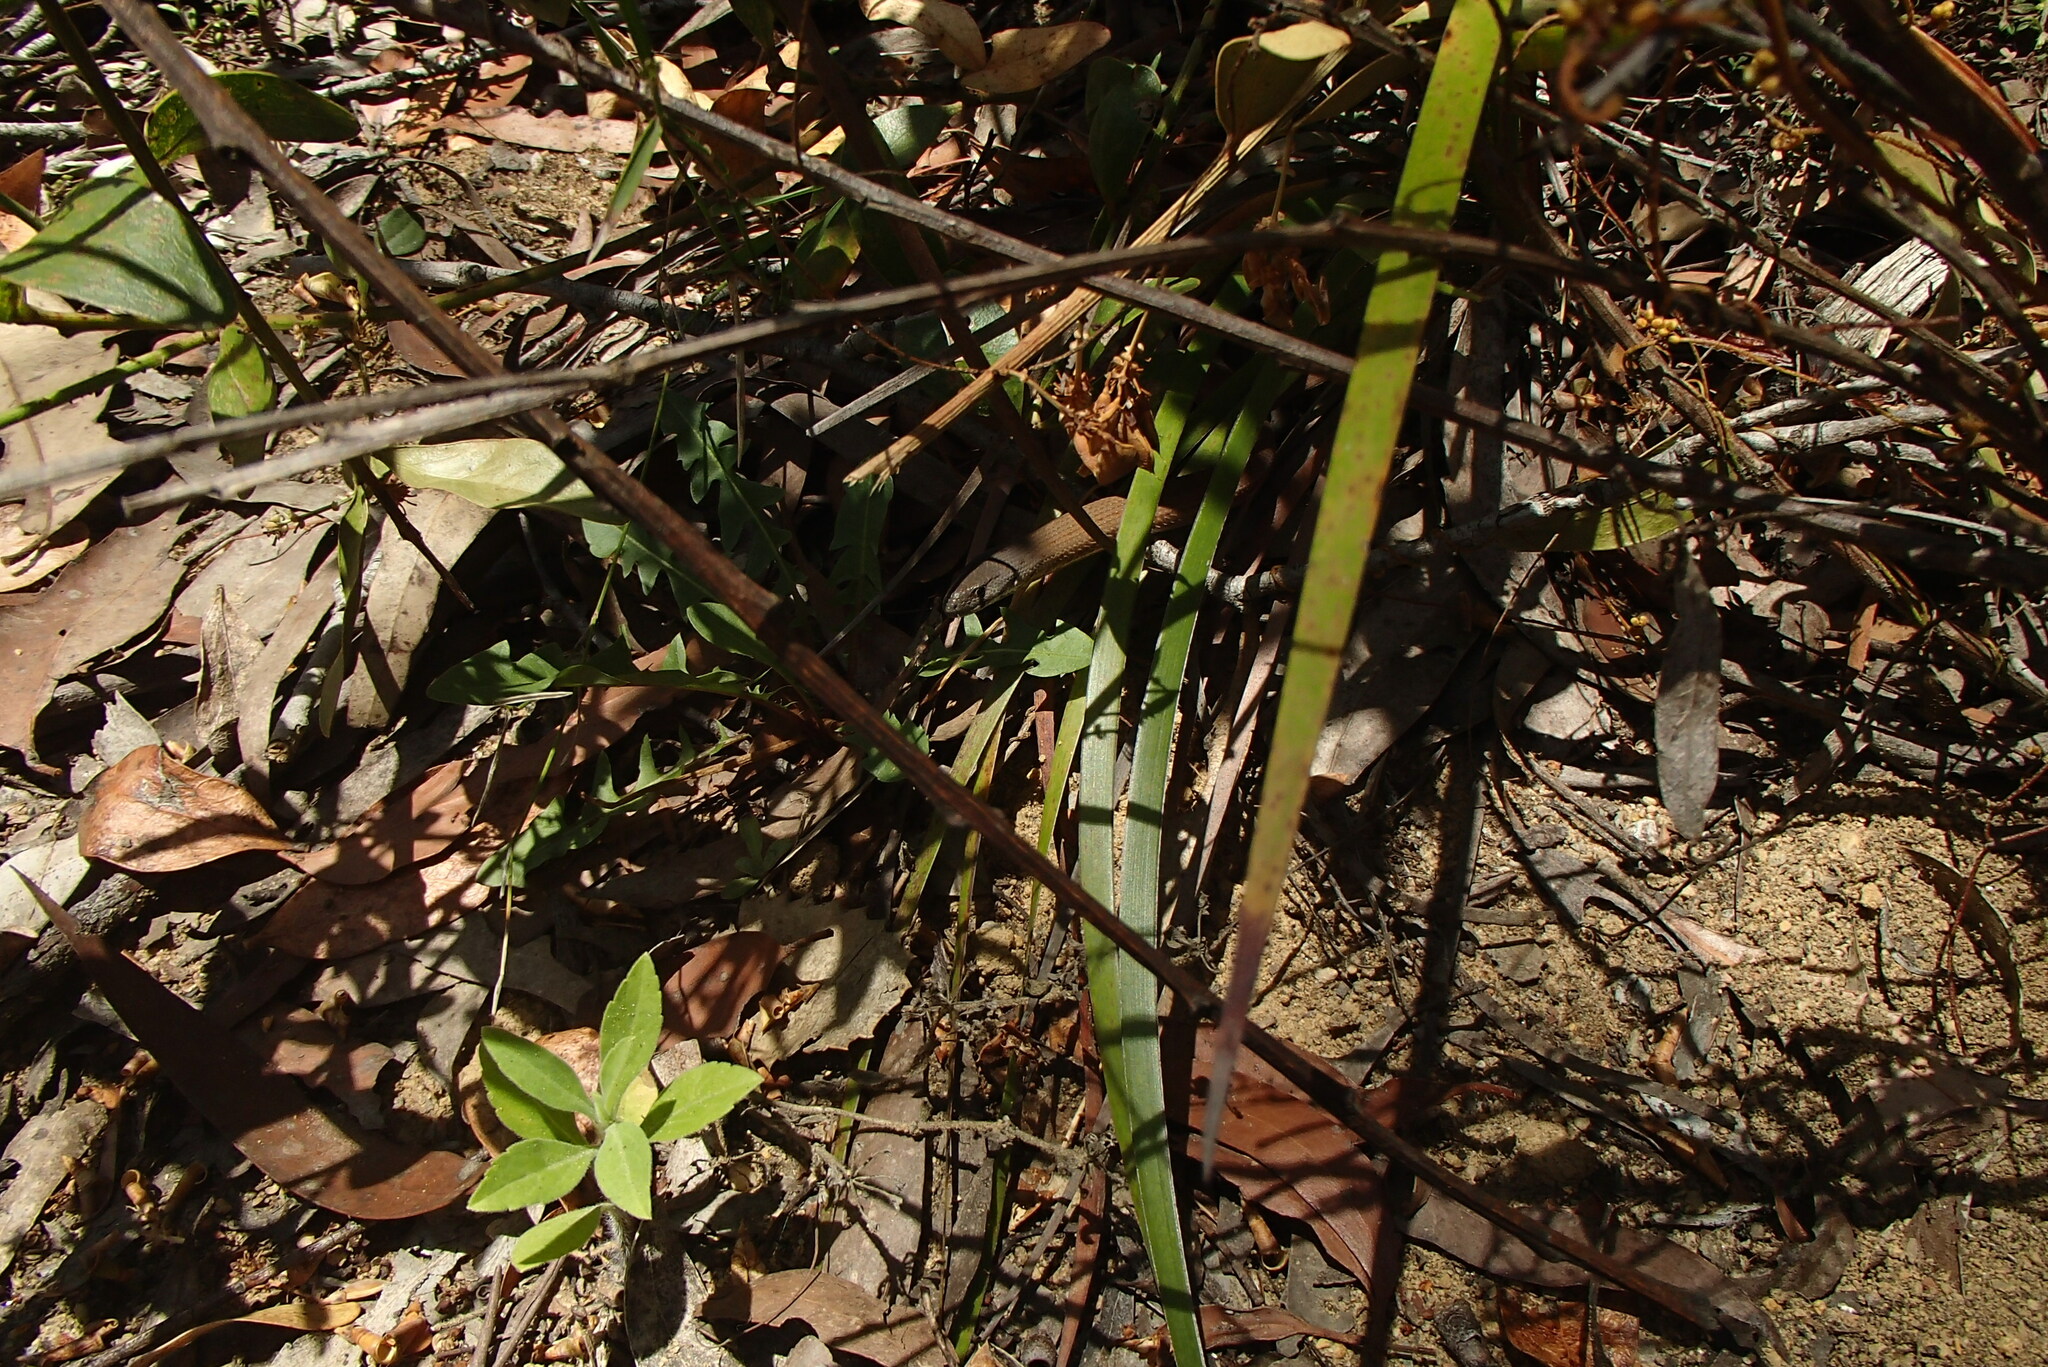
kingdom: Animalia
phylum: Chordata
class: Squamata
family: Pygopodidae
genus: Pygopus
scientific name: Pygopus lepidopodus
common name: Southern scaly-foot
